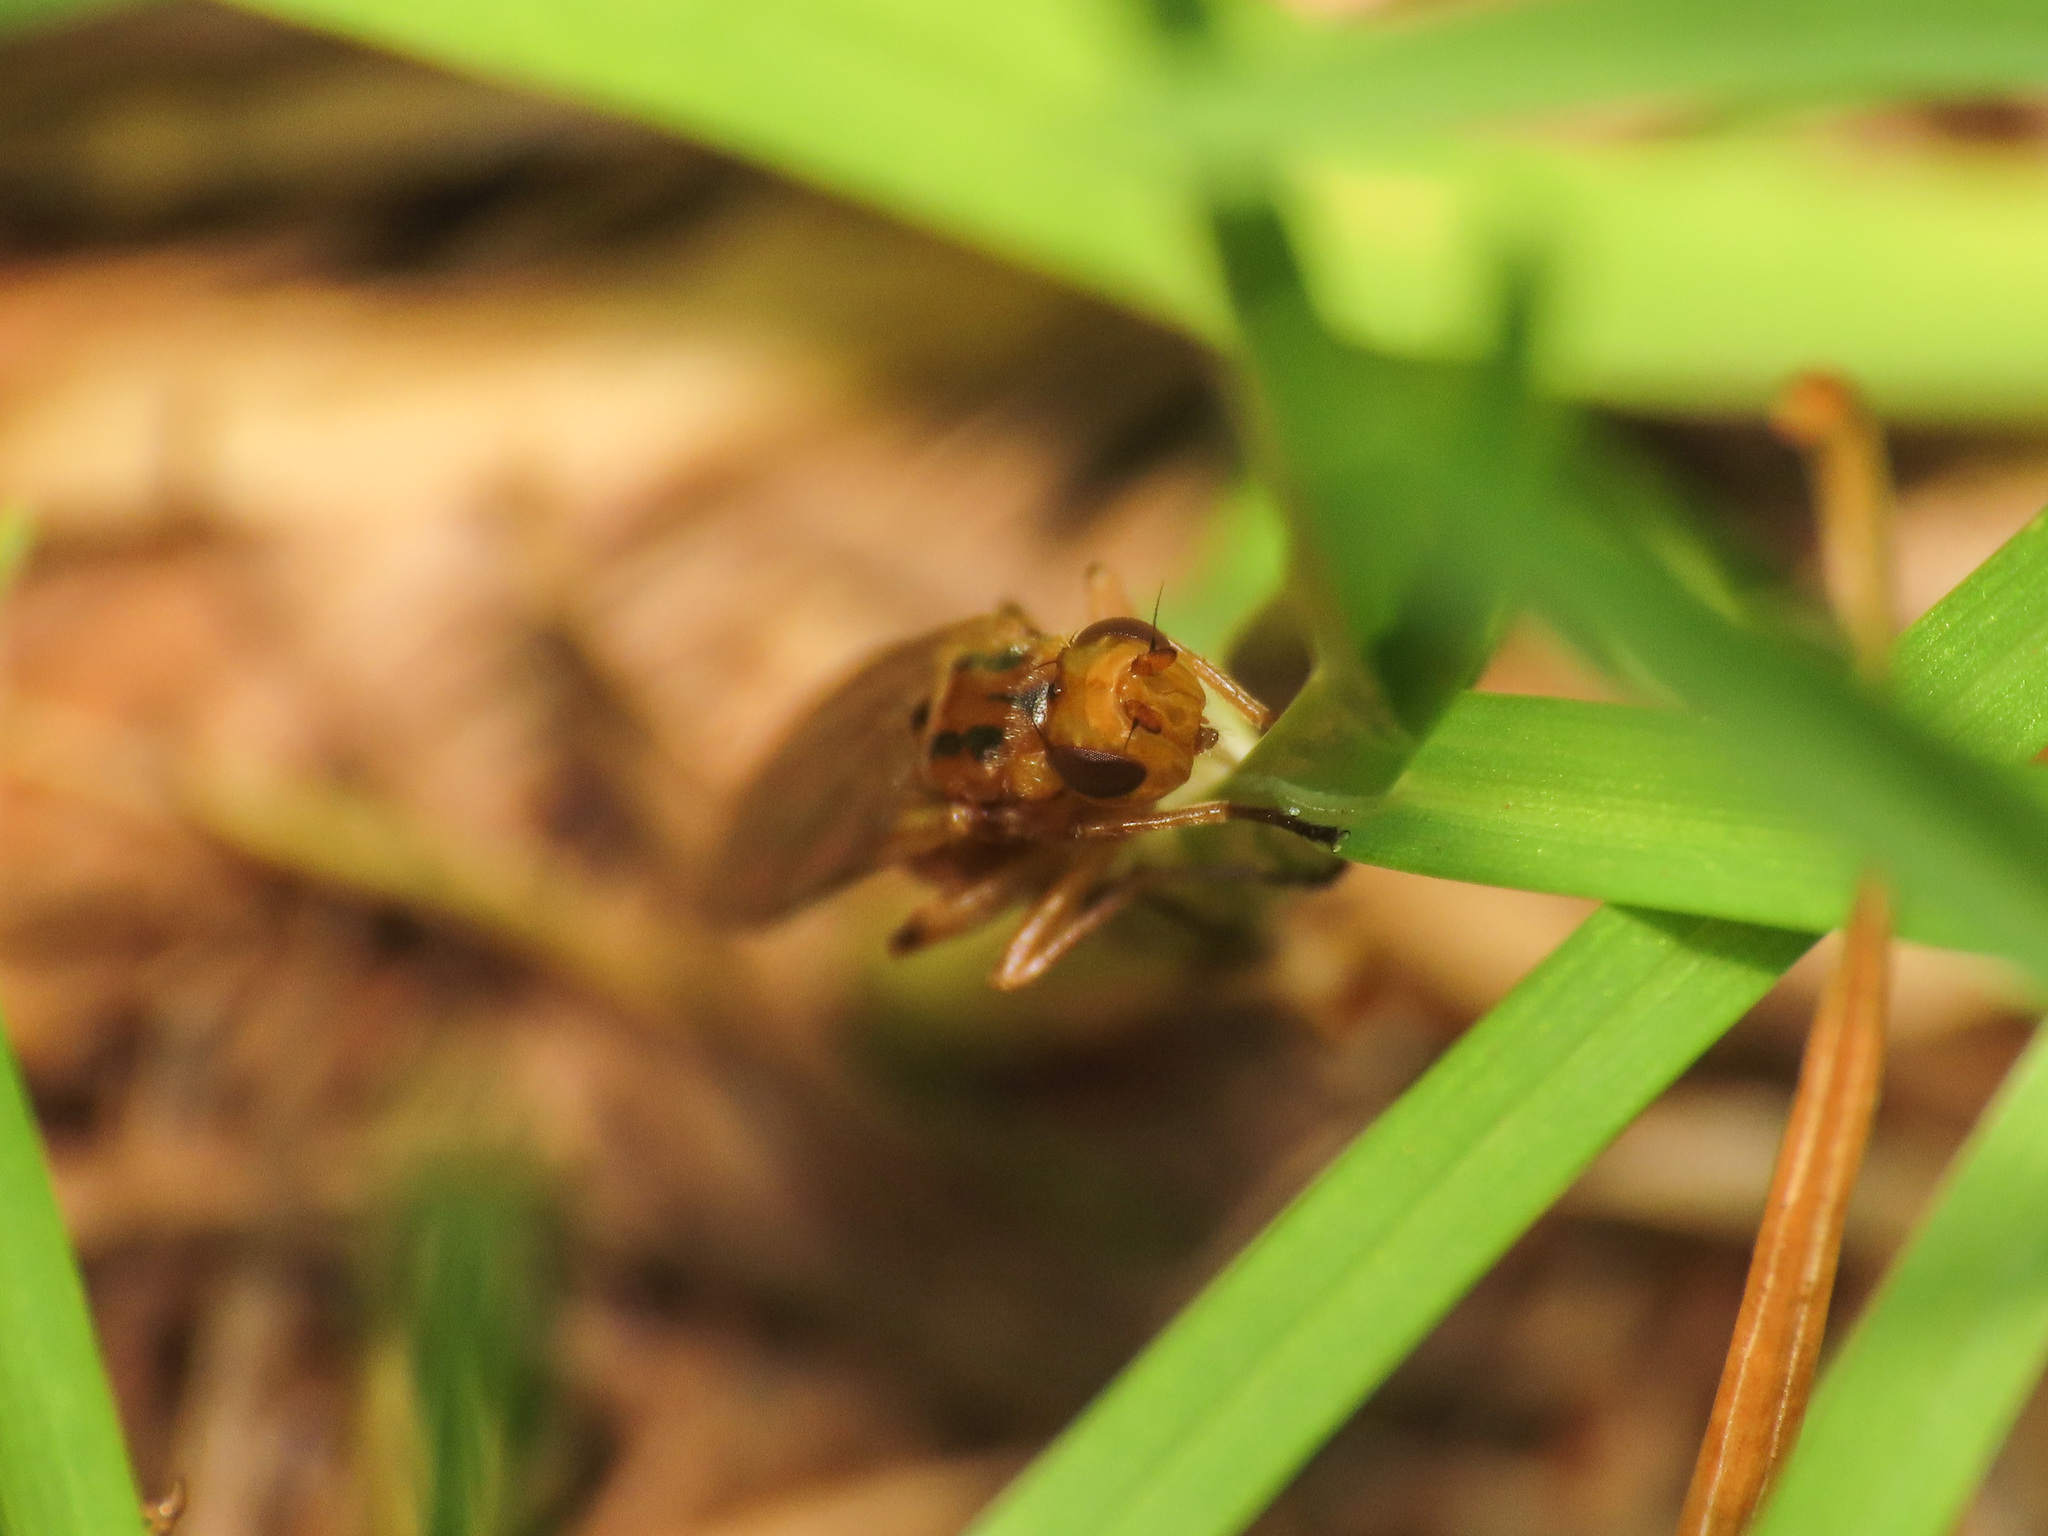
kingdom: Animalia
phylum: Arthropoda
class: Insecta
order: Diptera
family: Psilidae
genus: Psilosoma
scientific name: Psilosoma audouini
